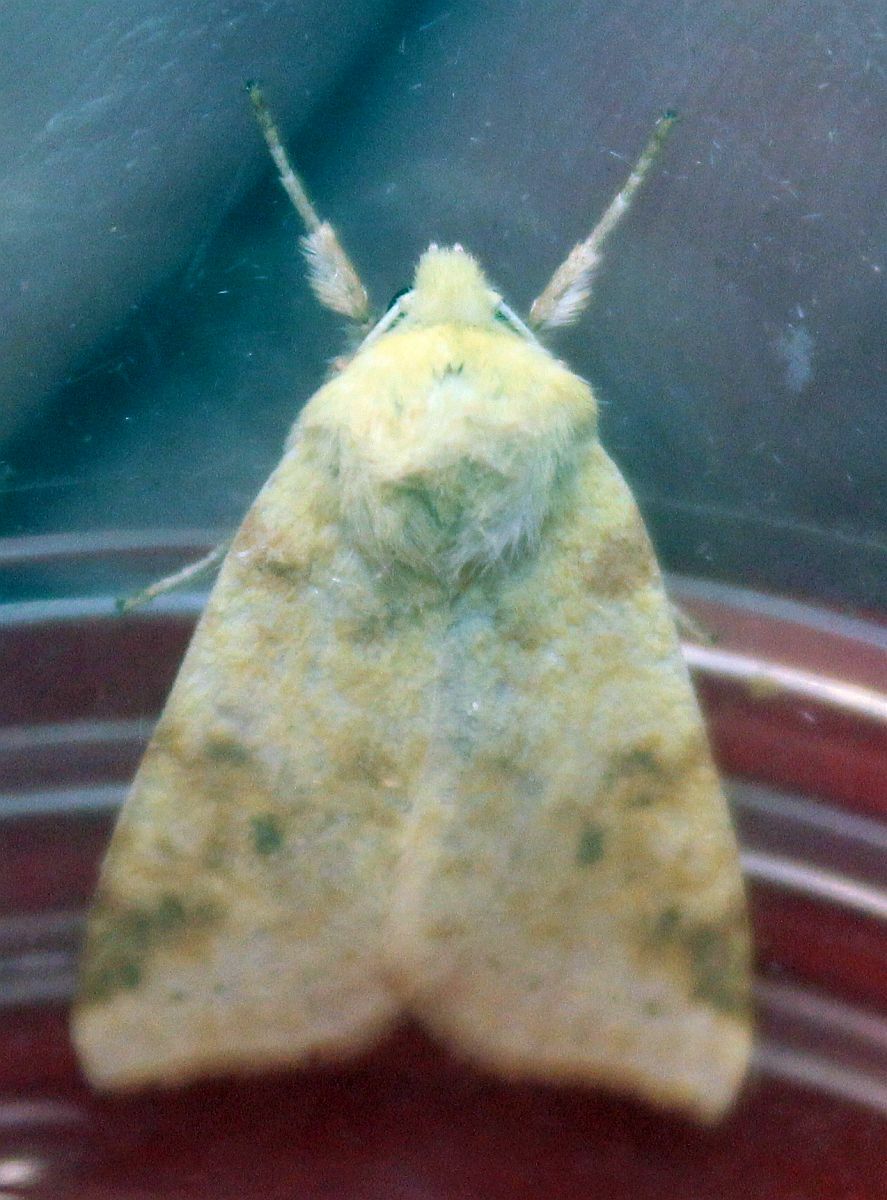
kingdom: Animalia
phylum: Arthropoda
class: Insecta
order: Lepidoptera
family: Noctuidae
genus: Xanthia
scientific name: Xanthia icteritia
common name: The sallow
